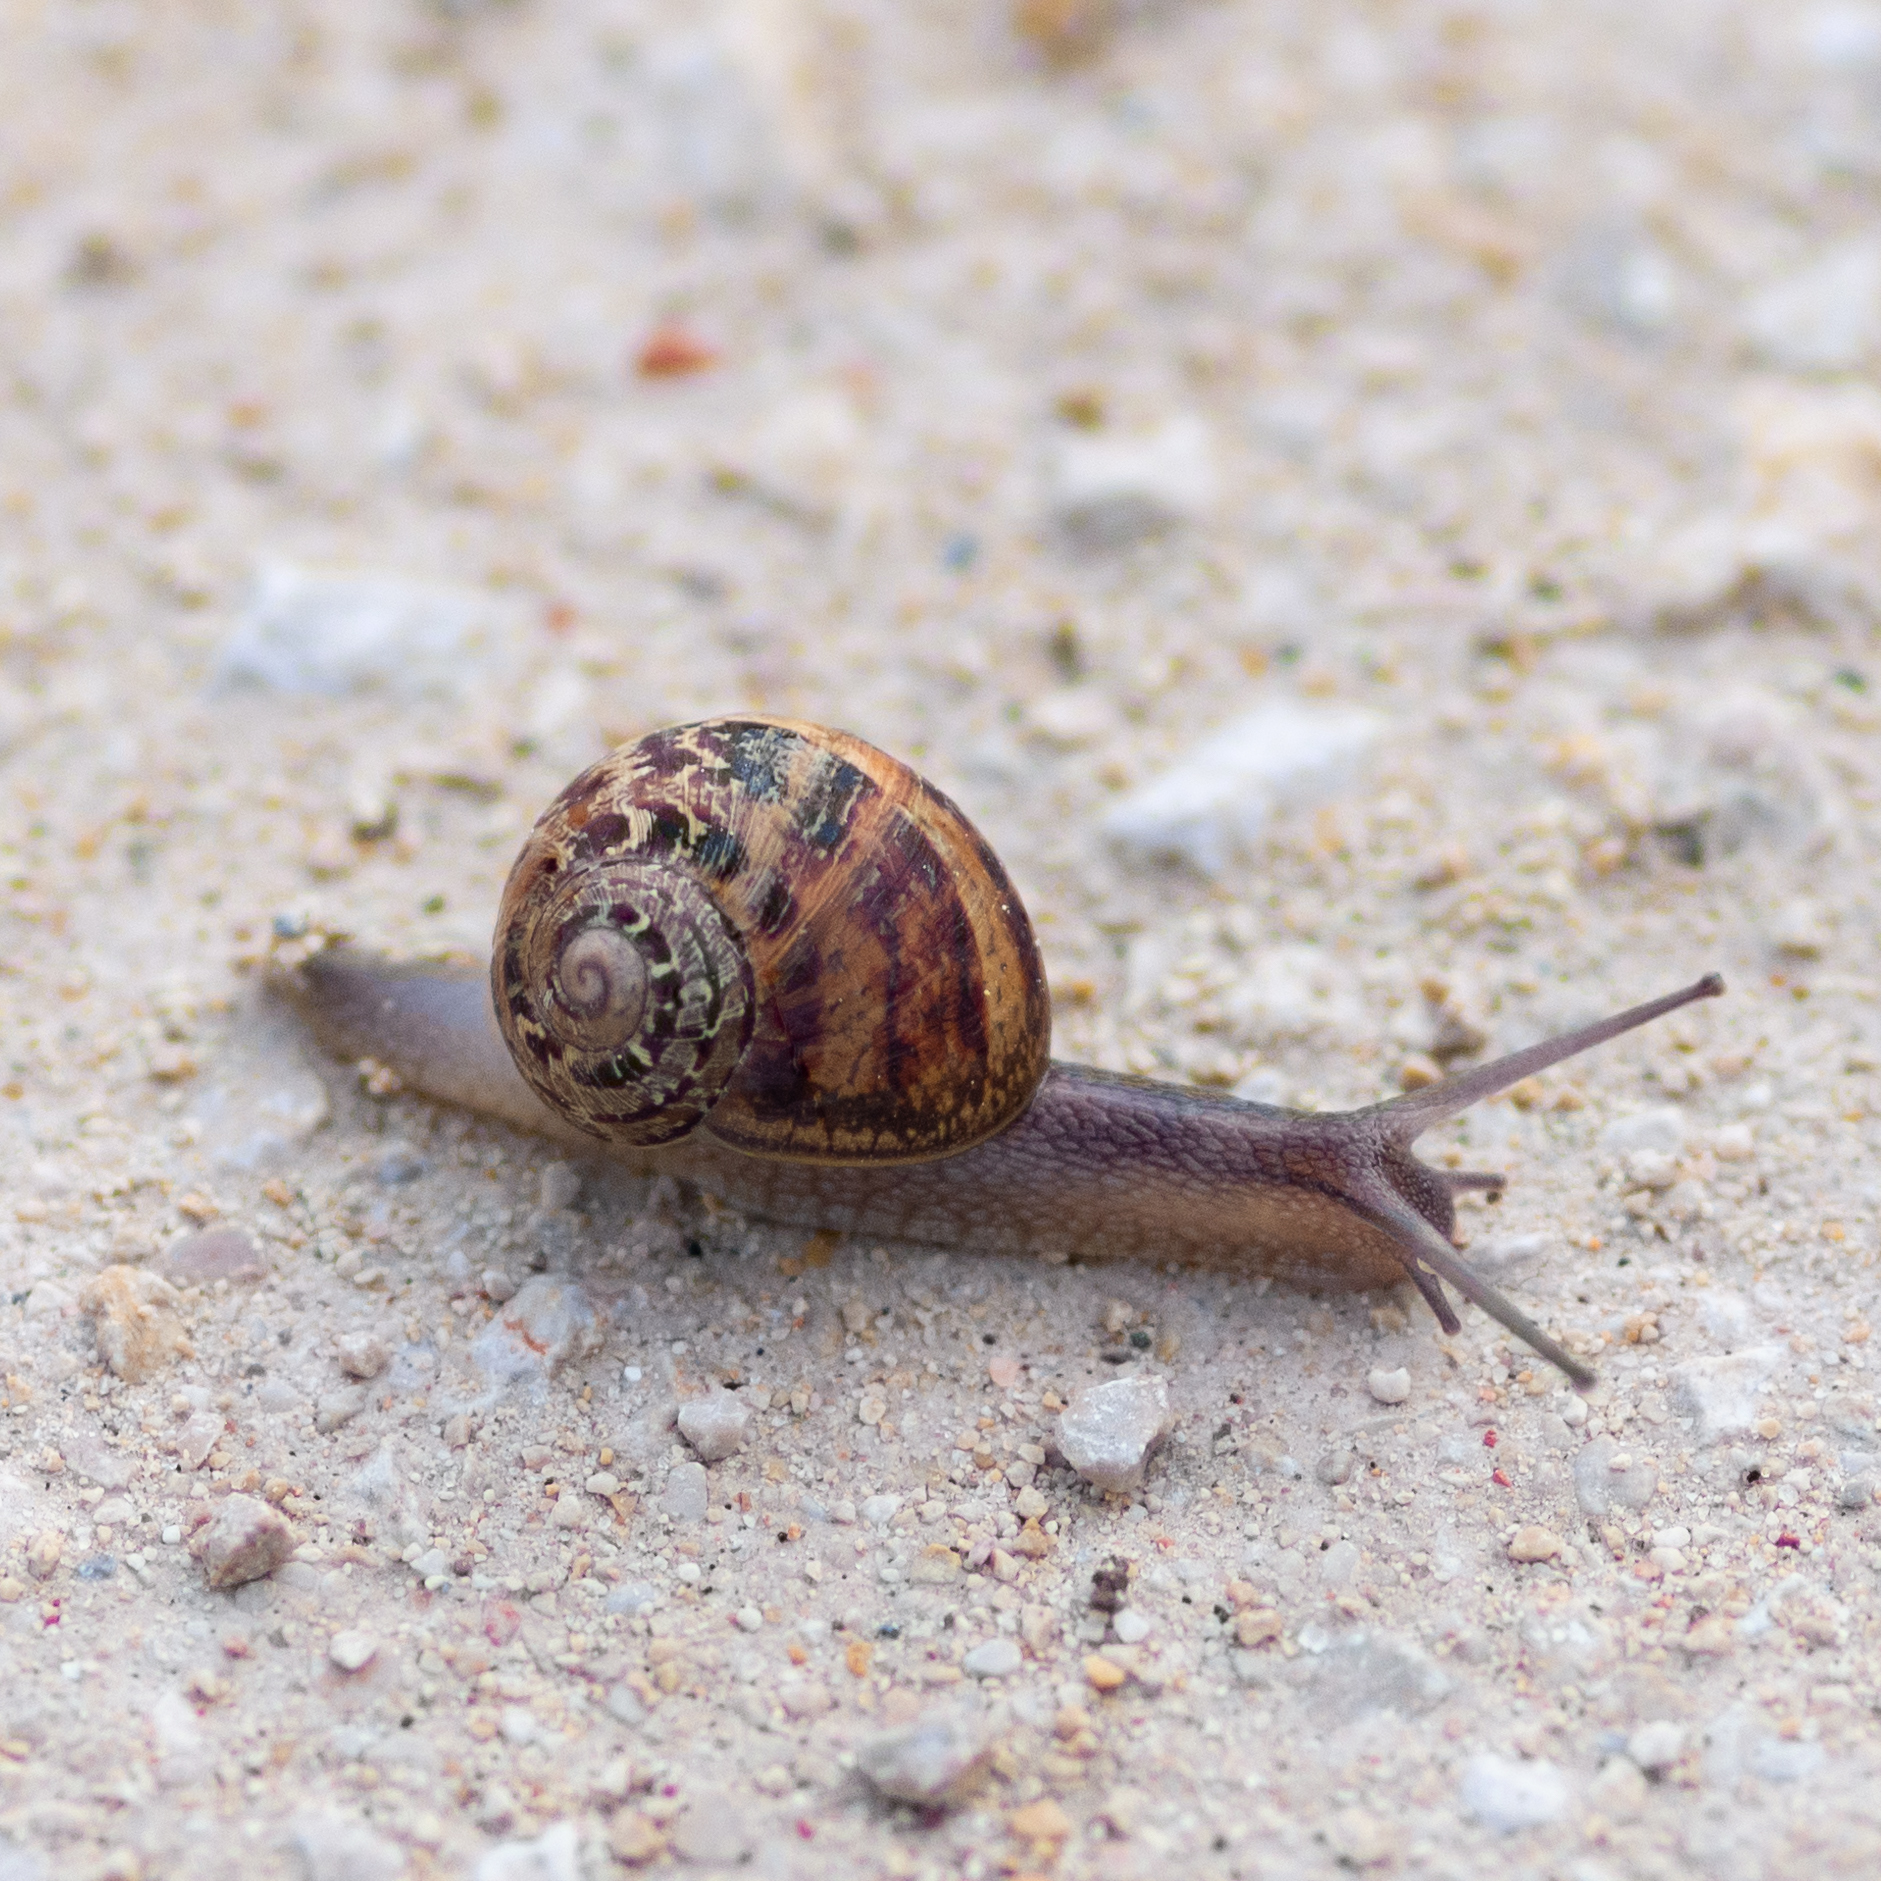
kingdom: Animalia
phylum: Mollusca
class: Gastropoda
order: Stylommatophora
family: Helicidae
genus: Cornu
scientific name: Cornu aspersum
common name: Brown garden snail
